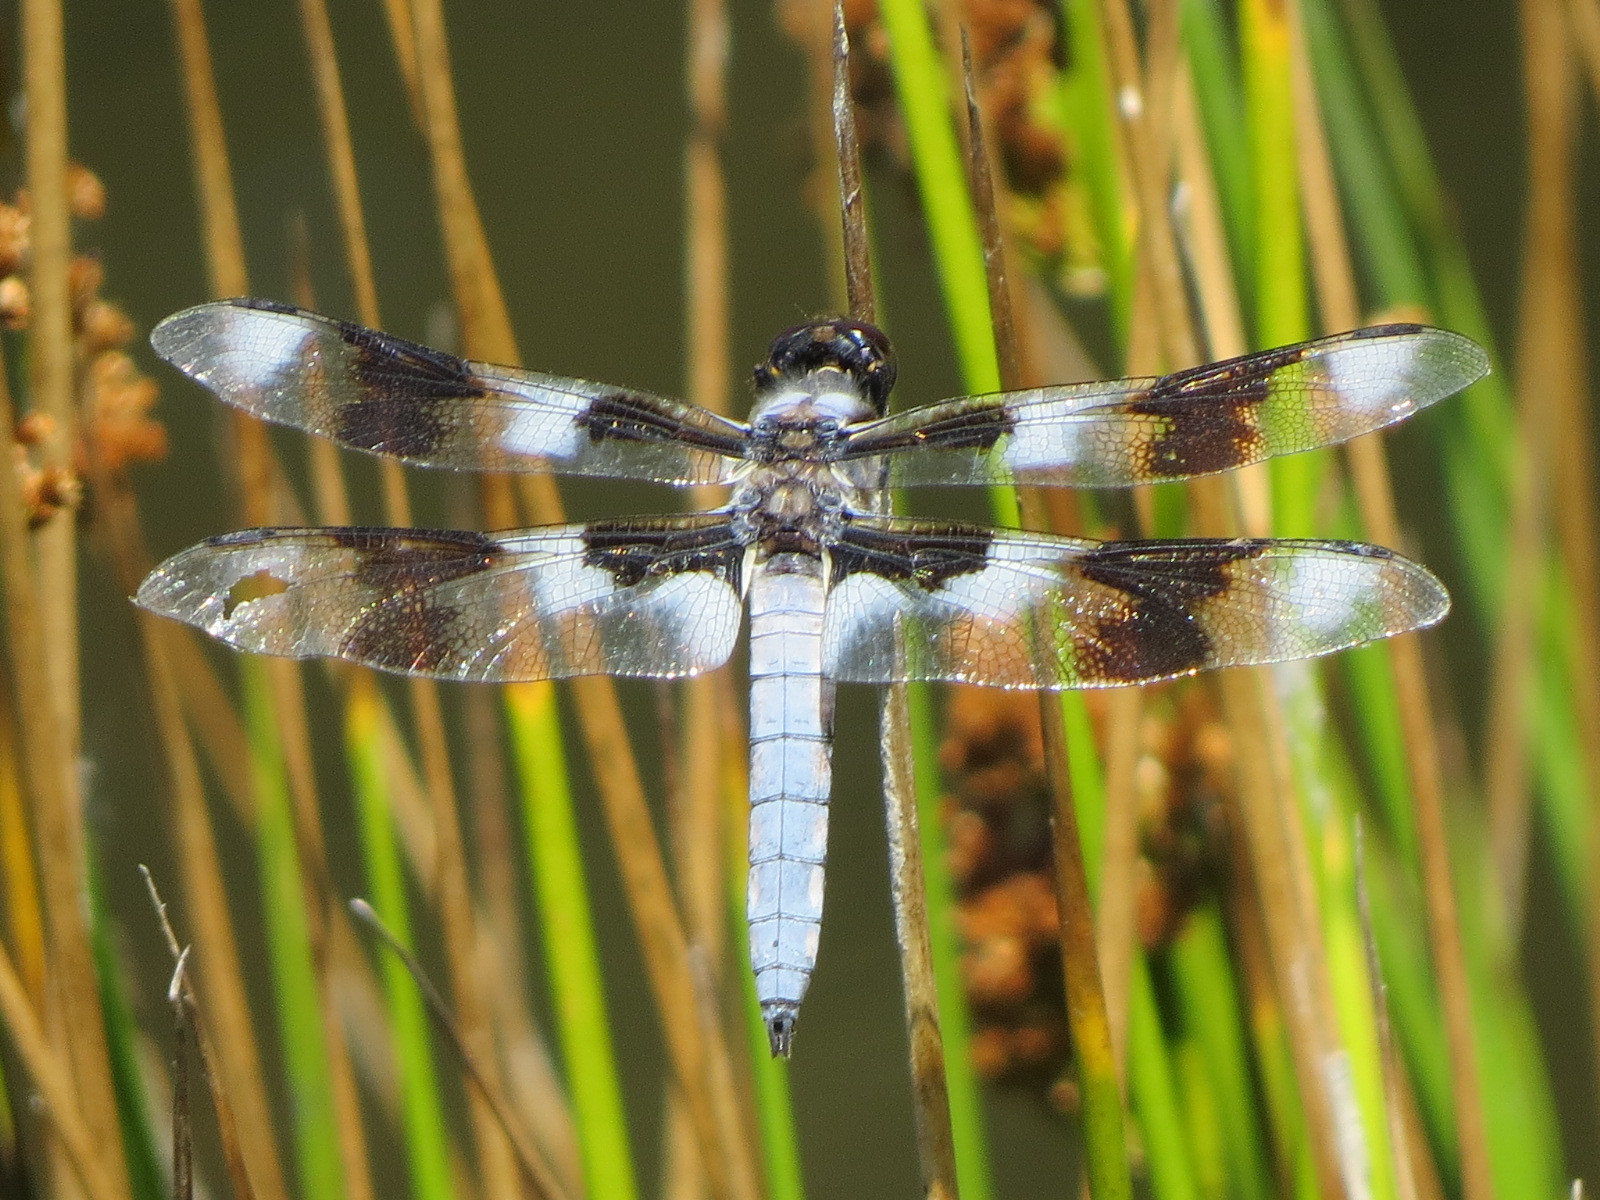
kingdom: Animalia
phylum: Arthropoda
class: Insecta
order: Odonata
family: Libellulidae
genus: Libellula
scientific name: Libellula forensis
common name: Eight-spotted skimmer
